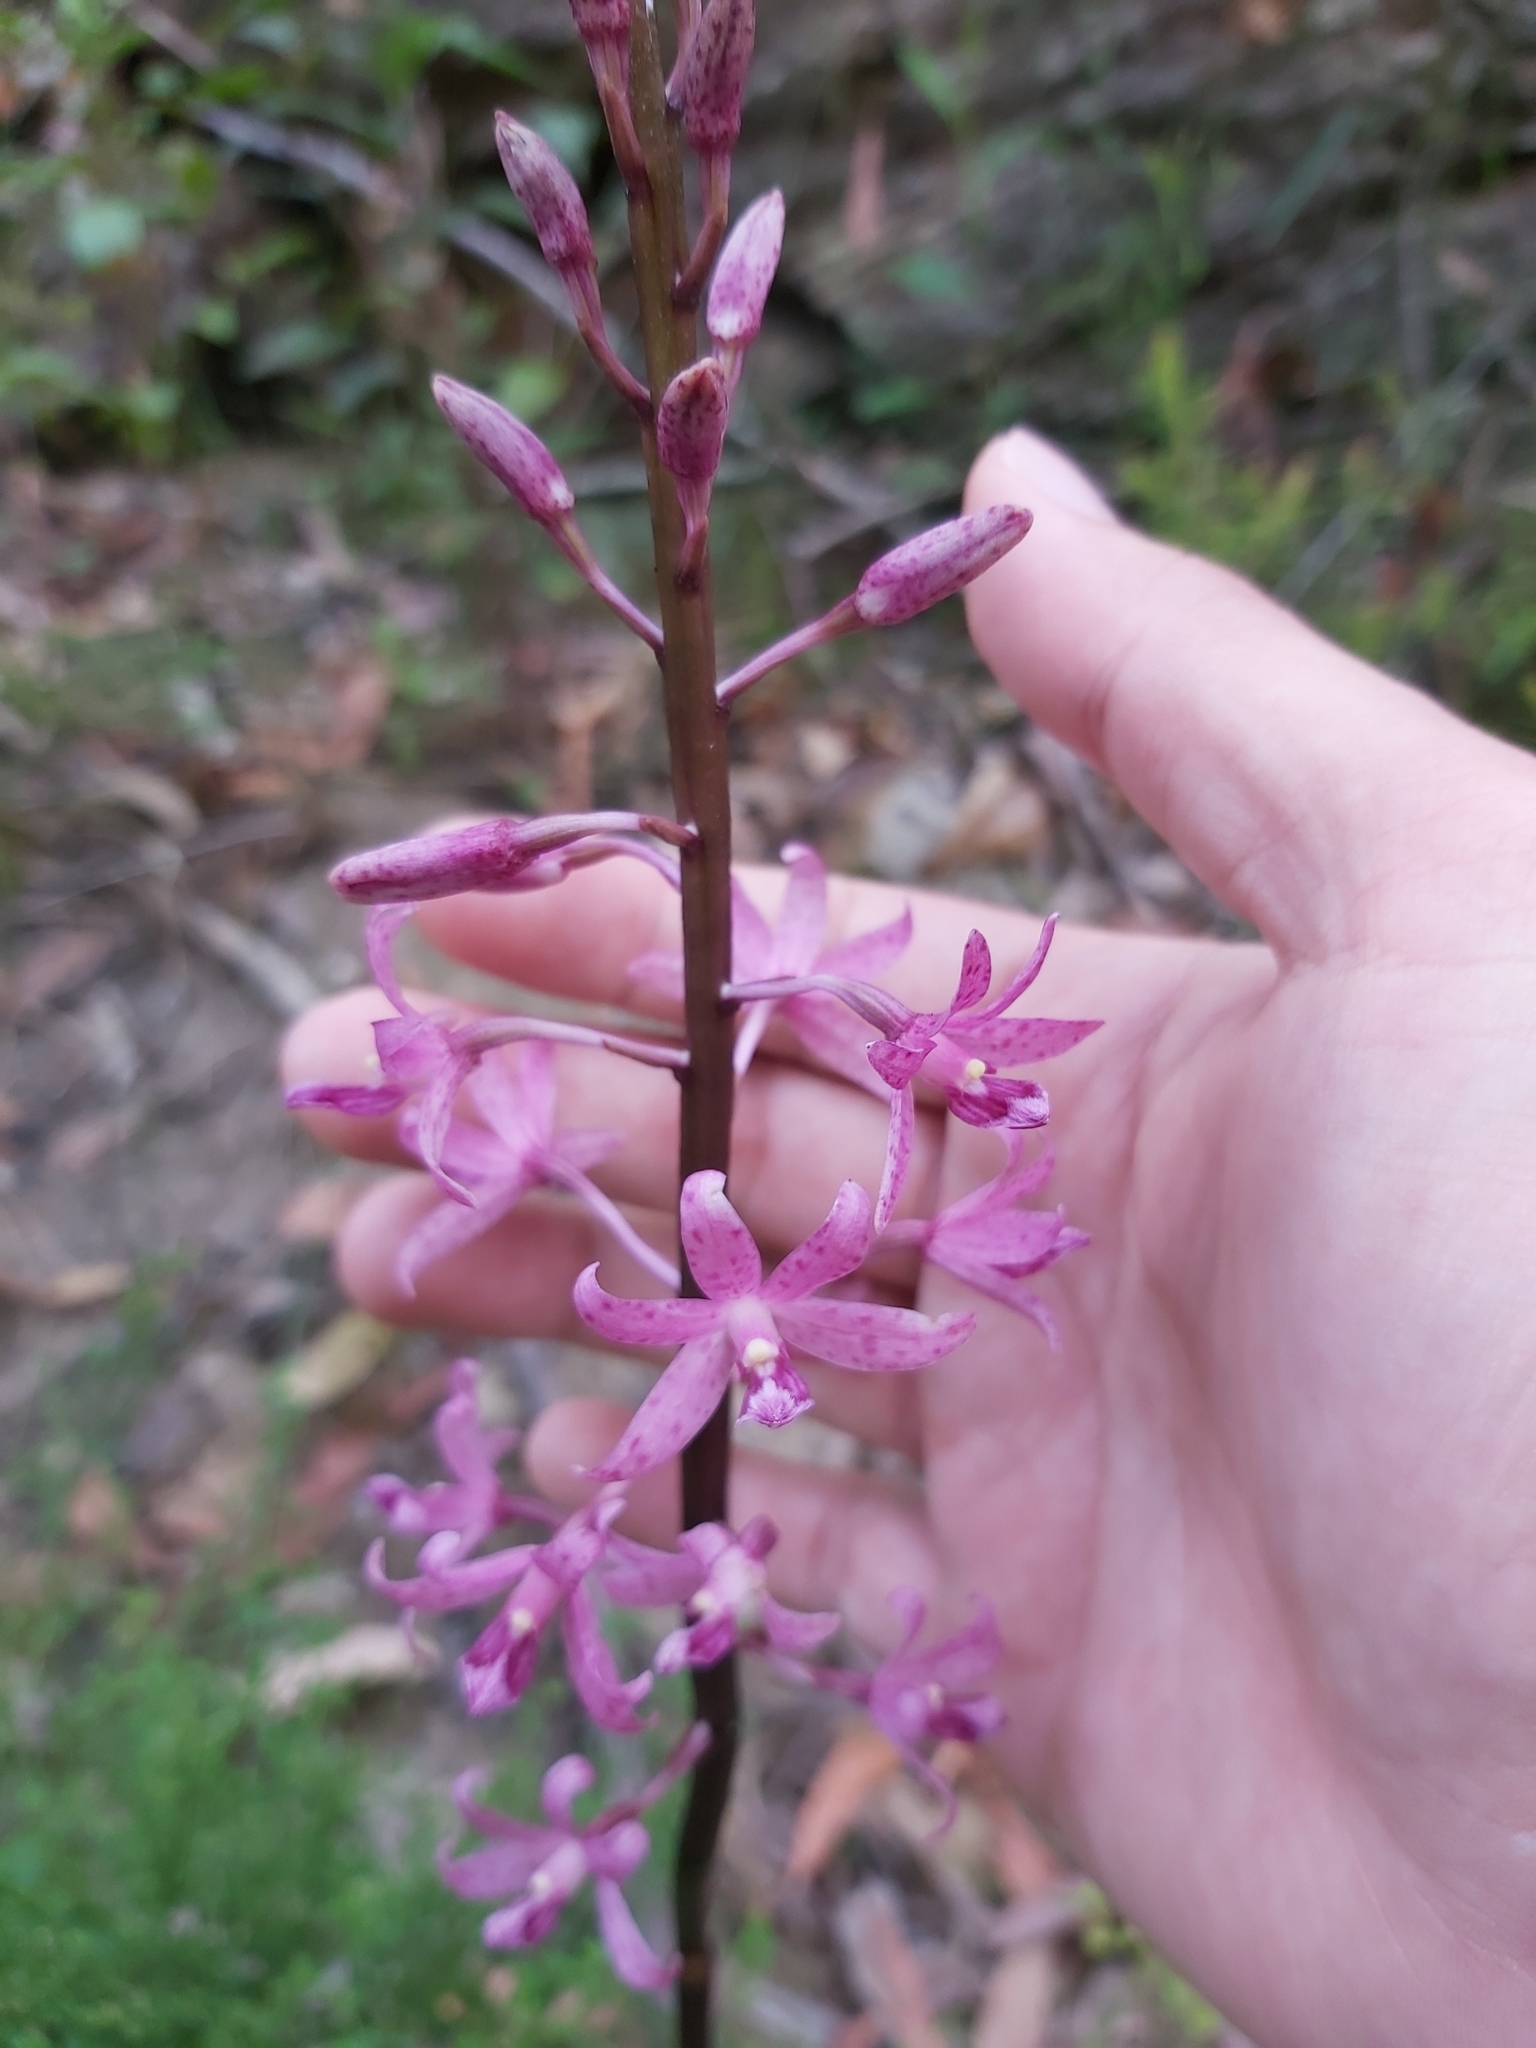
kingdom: Plantae
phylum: Tracheophyta
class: Liliopsida
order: Asparagales
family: Orchidaceae
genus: Dipodium
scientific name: Dipodium roseum
